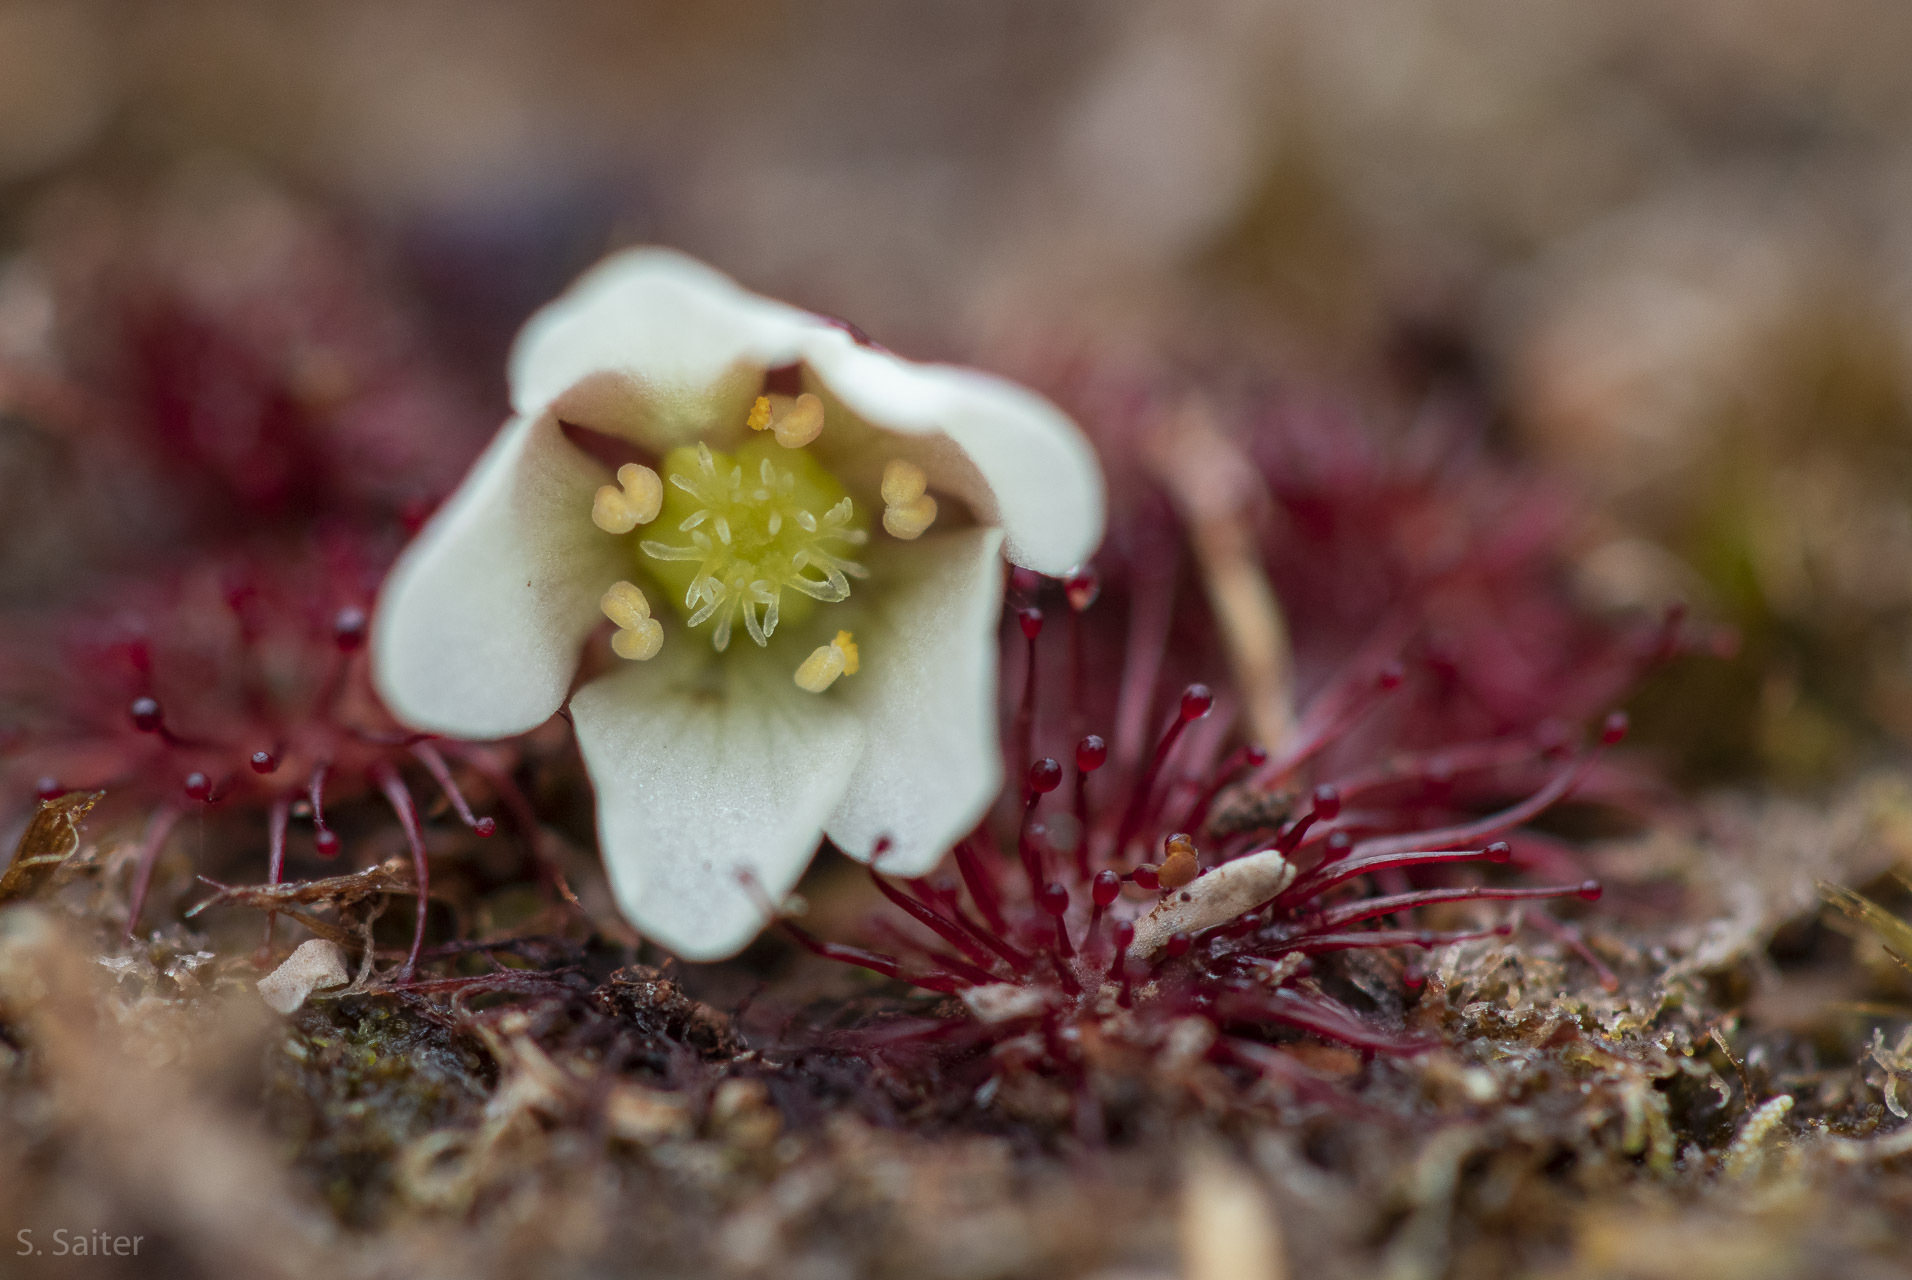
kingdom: Plantae
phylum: Tracheophyta
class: Magnoliopsida
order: Caryophyllales
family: Droseraceae
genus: Drosera
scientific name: Drosera uniflora
